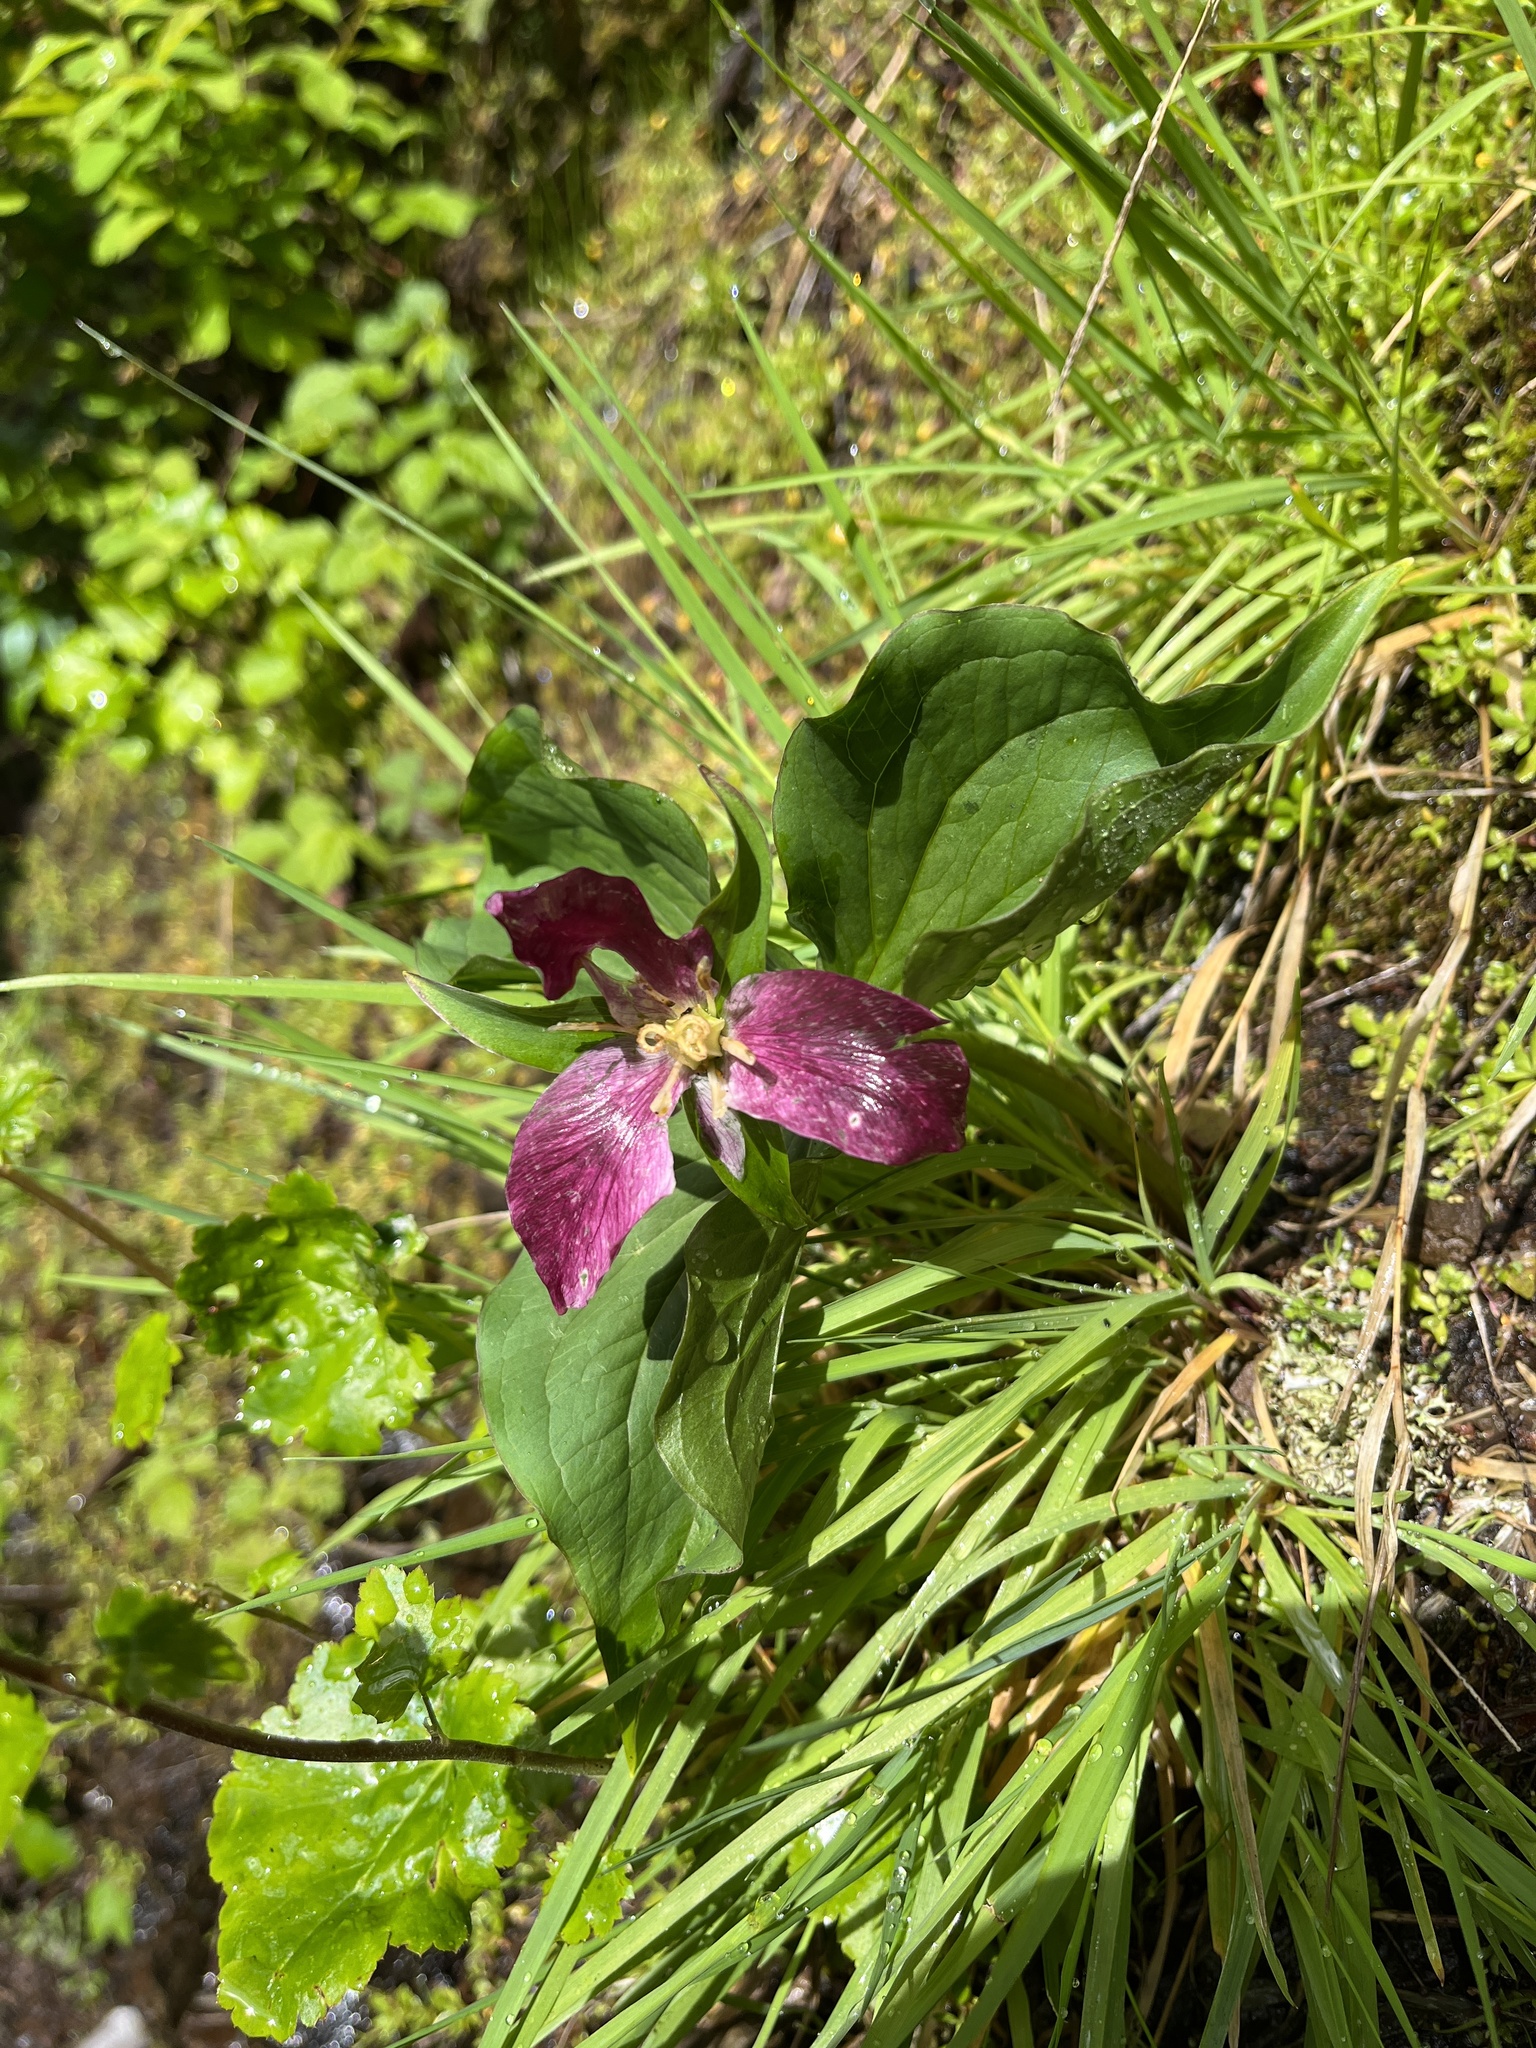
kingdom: Plantae
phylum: Tracheophyta
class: Liliopsida
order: Liliales
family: Melanthiaceae
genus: Trillium
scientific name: Trillium ovatum
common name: Pacific trillium
